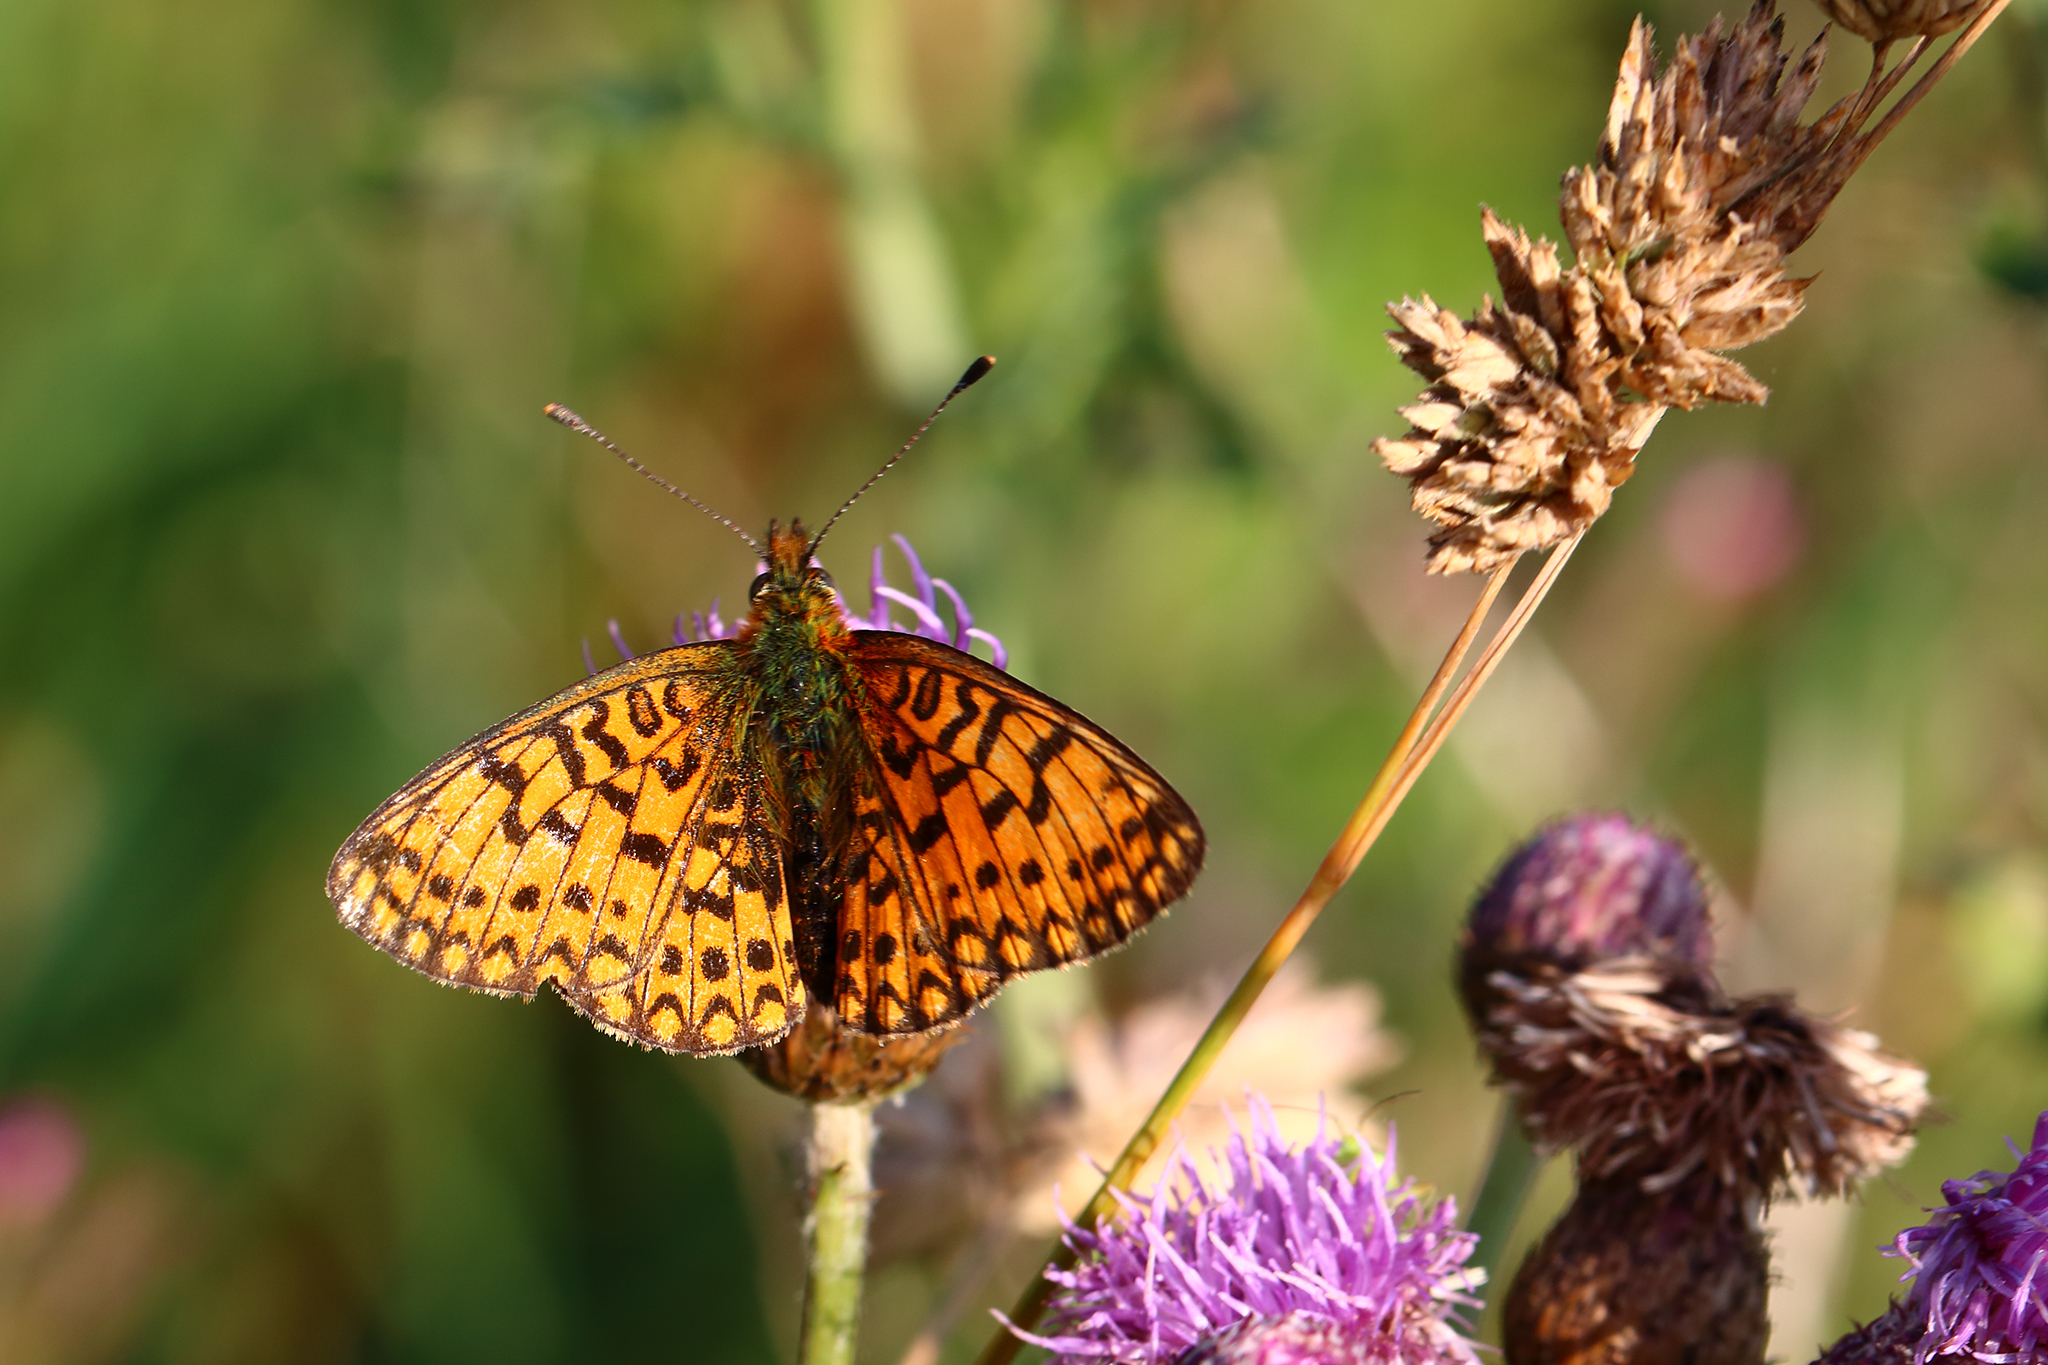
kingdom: Animalia
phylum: Arthropoda
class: Insecta
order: Lepidoptera
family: Nymphalidae
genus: Boloria
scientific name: Boloria selene
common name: Small pearl-bordered fritillary
